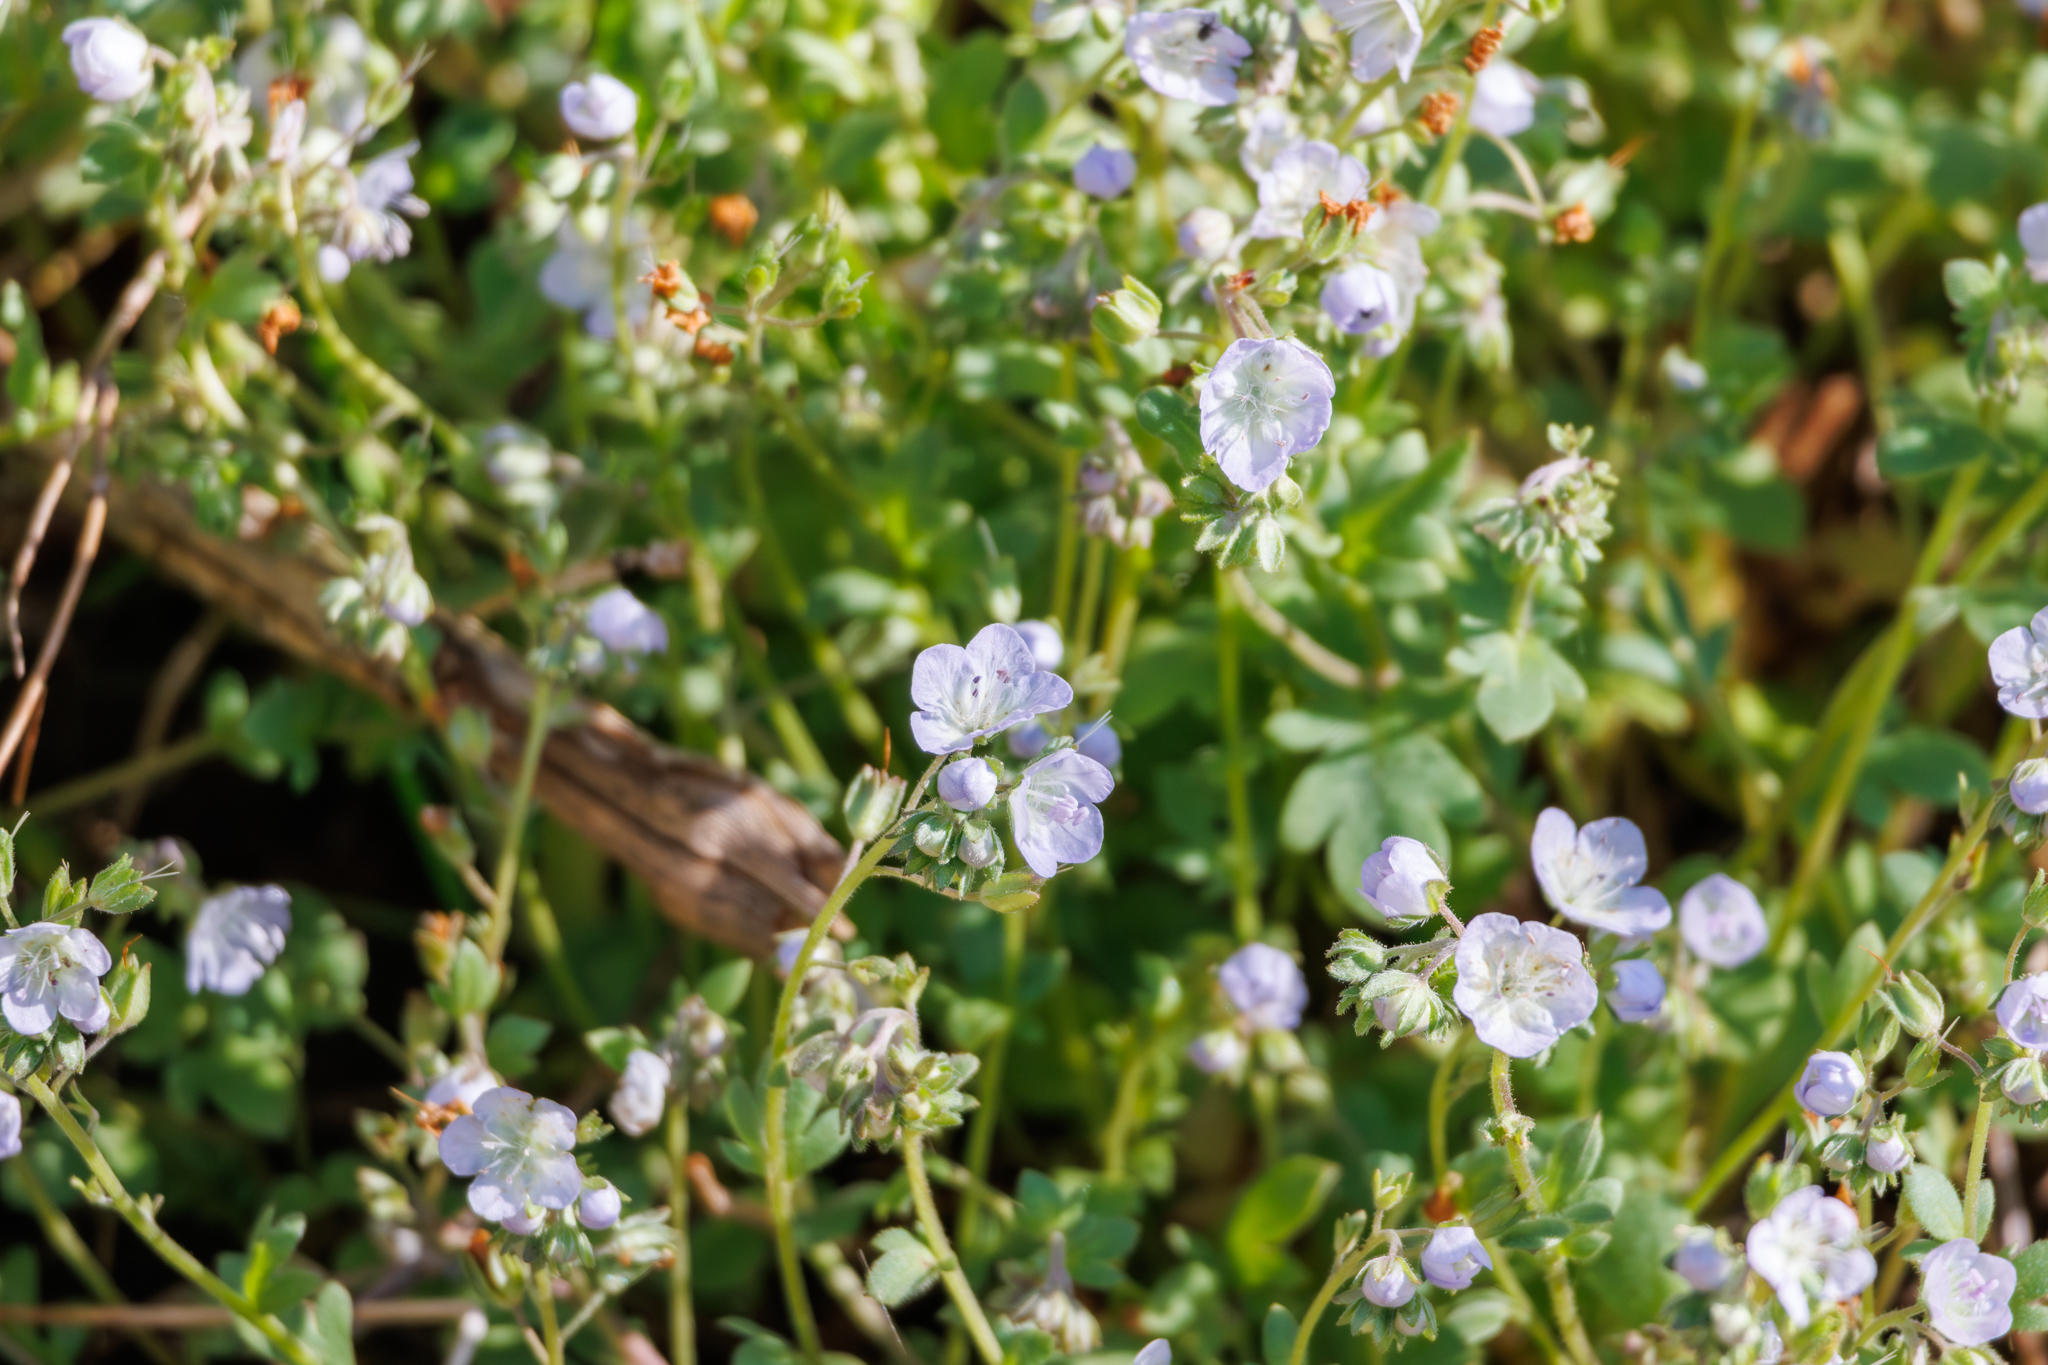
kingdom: Plantae
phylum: Tracheophyta
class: Magnoliopsida
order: Boraginales
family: Hydrophyllaceae
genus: Phacelia
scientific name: Phacelia dubia
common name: Appalachian phacelia
